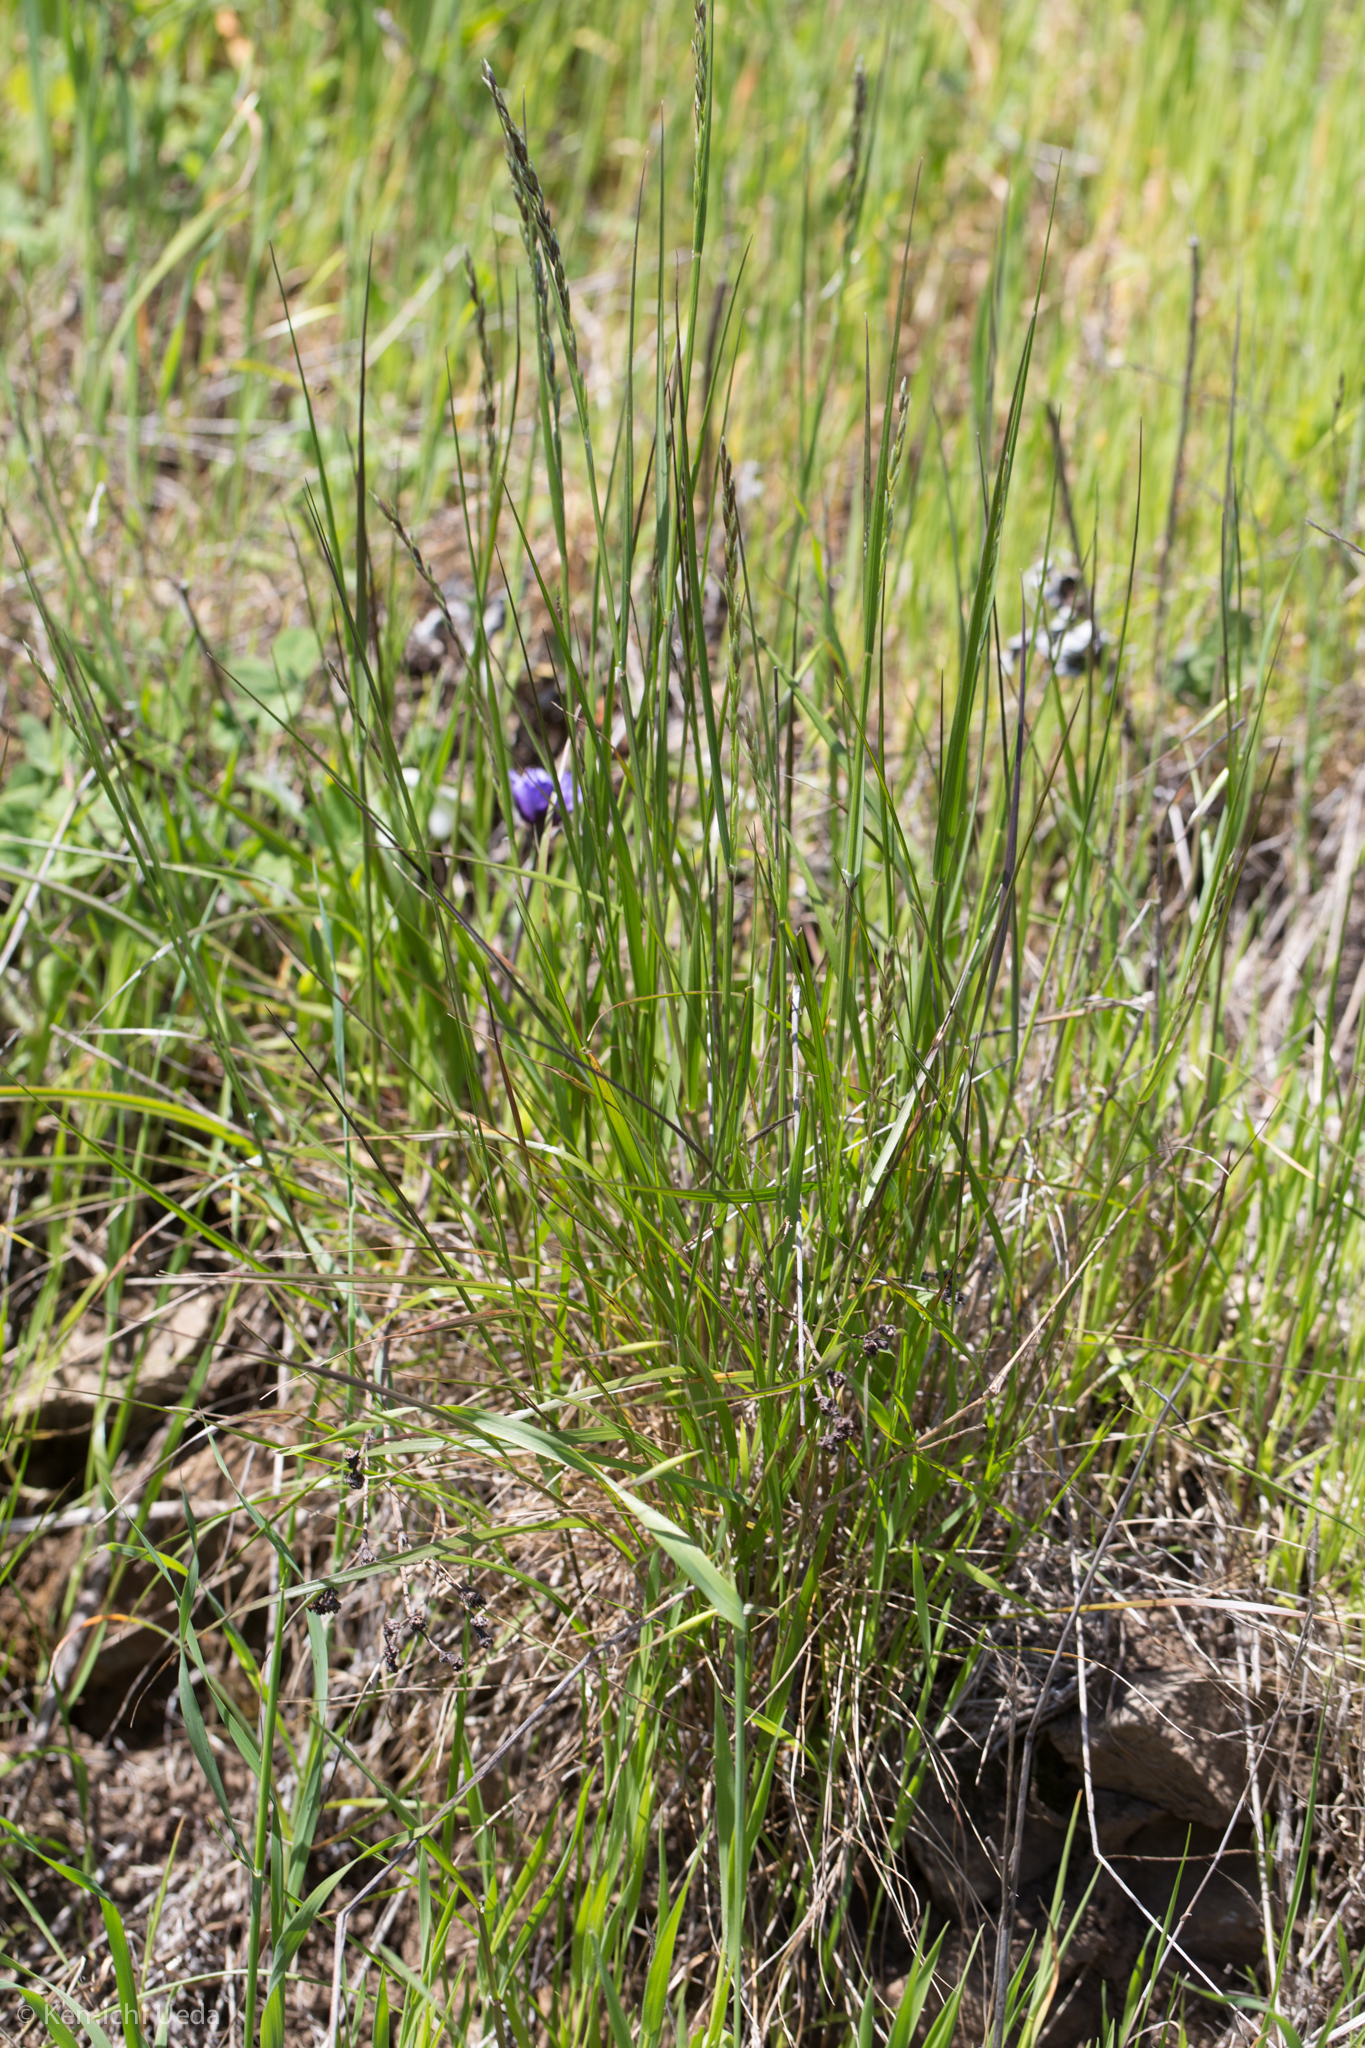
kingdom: Plantae
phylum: Tracheophyta
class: Liliopsida
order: Poales
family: Poaceae
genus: Melica
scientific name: Melica californica
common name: California melic
